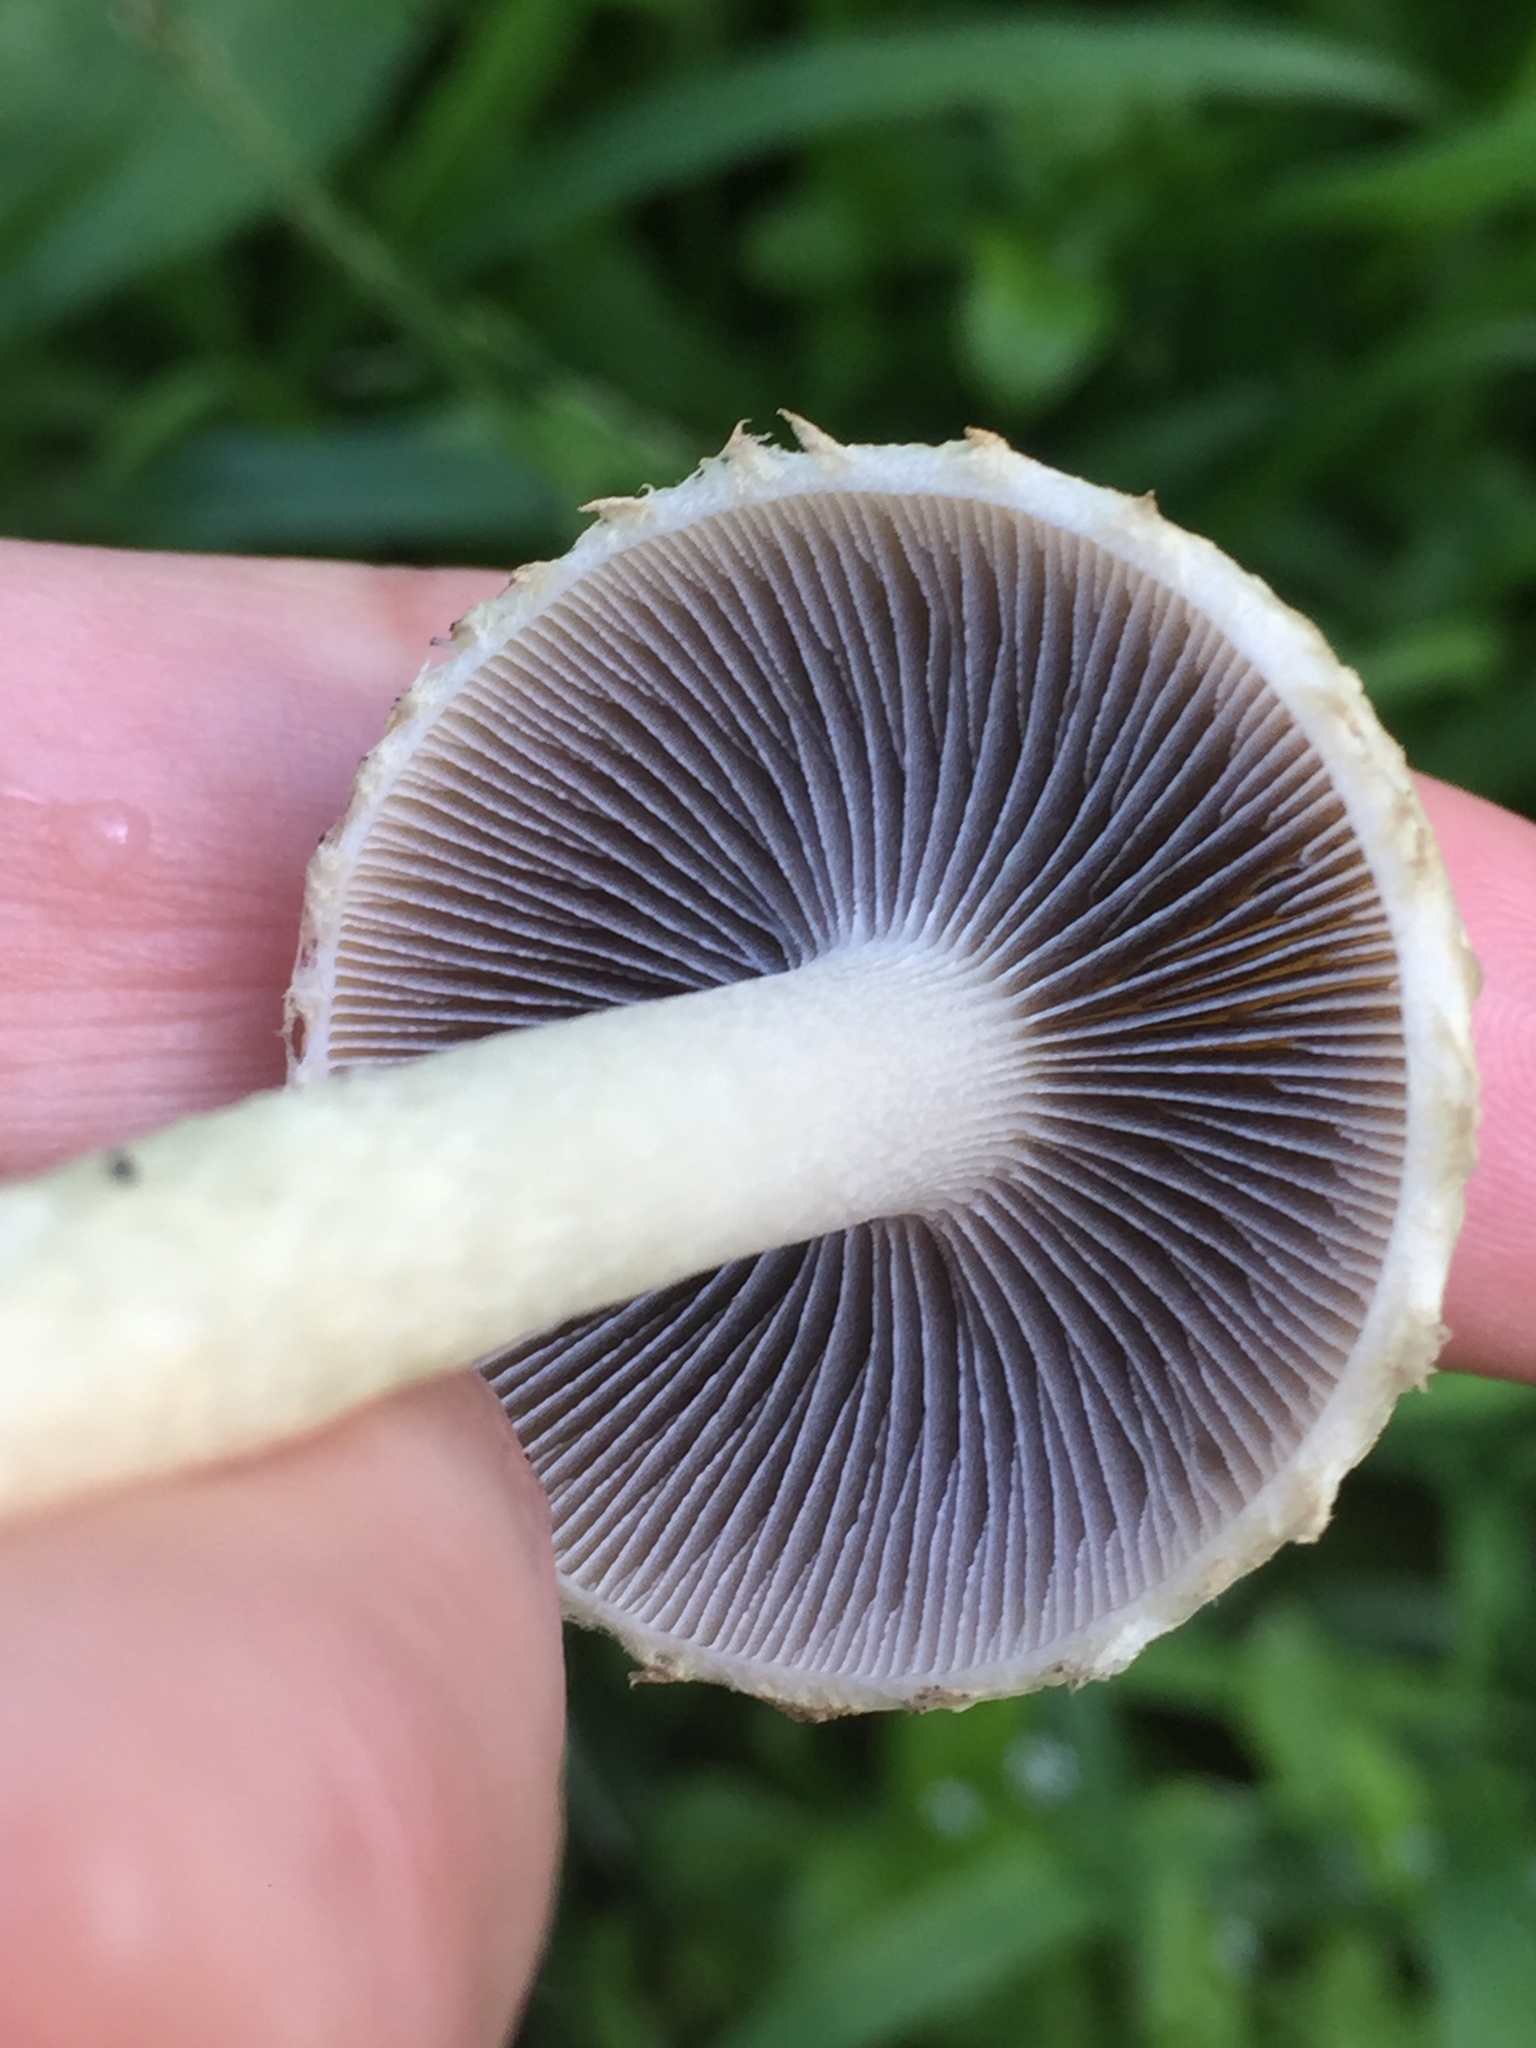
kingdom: Fungi
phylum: Basidiomycota
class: Agaricomycetes
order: Agaricales
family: Strophariaceae
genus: Leratiomyces
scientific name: Leratiomyces percevalii
